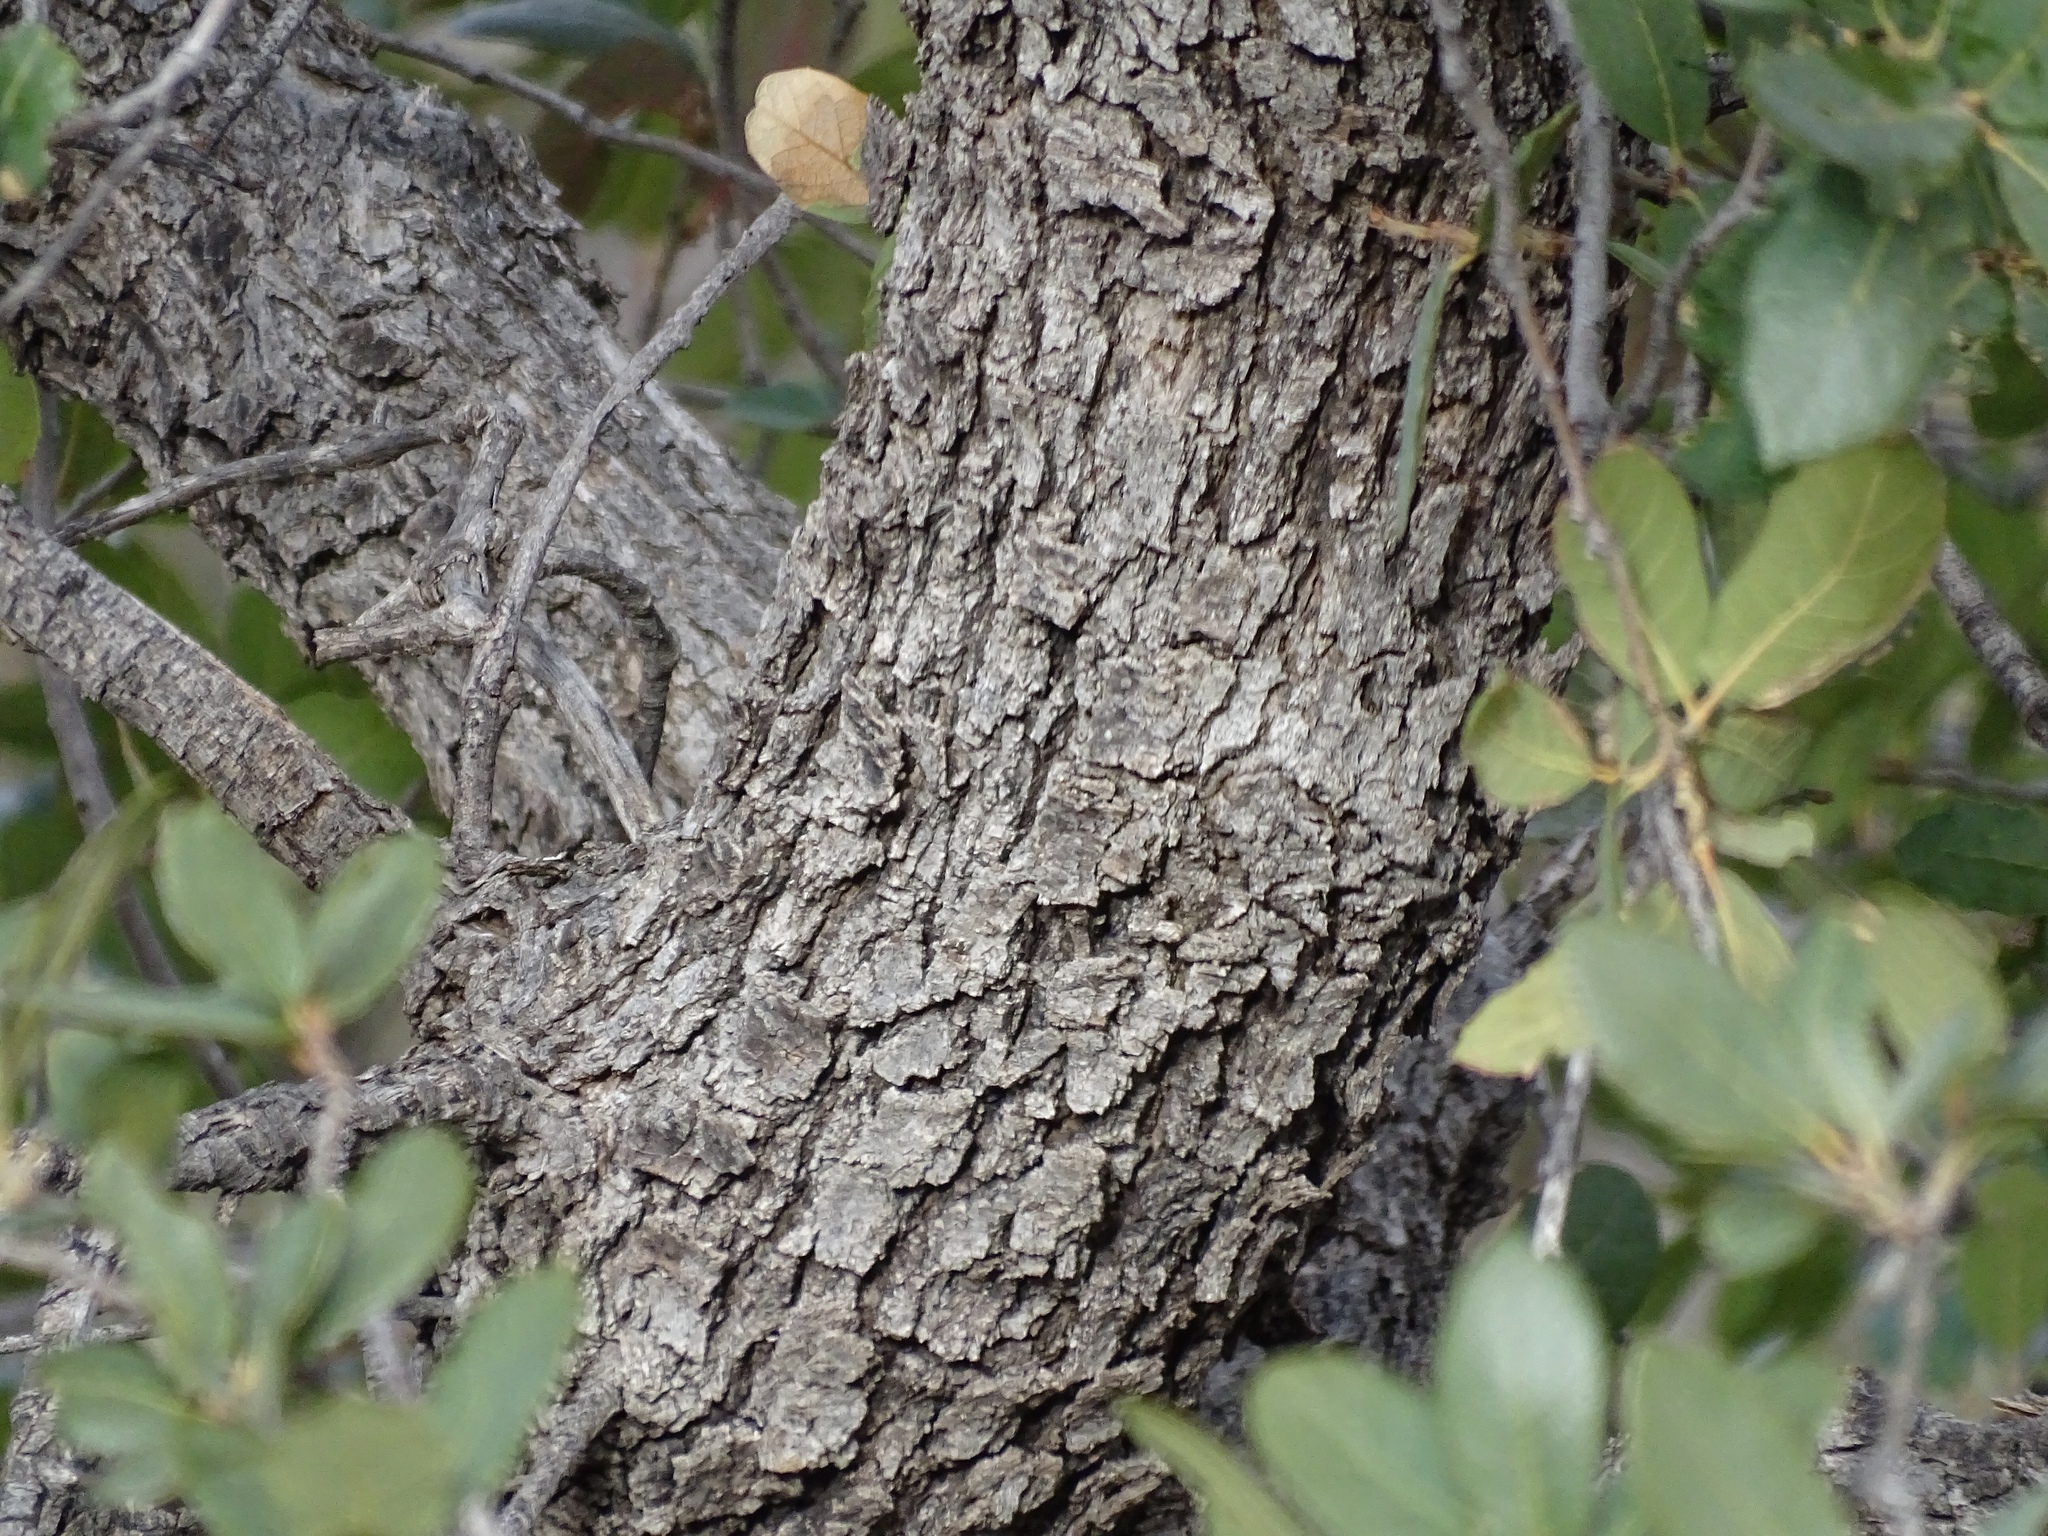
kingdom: Plantae
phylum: Tracheophyta
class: Magnoliopsida
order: Fagales
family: Fagaceae
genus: Quercus
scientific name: Quercus arizonica
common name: Arizona white oak
